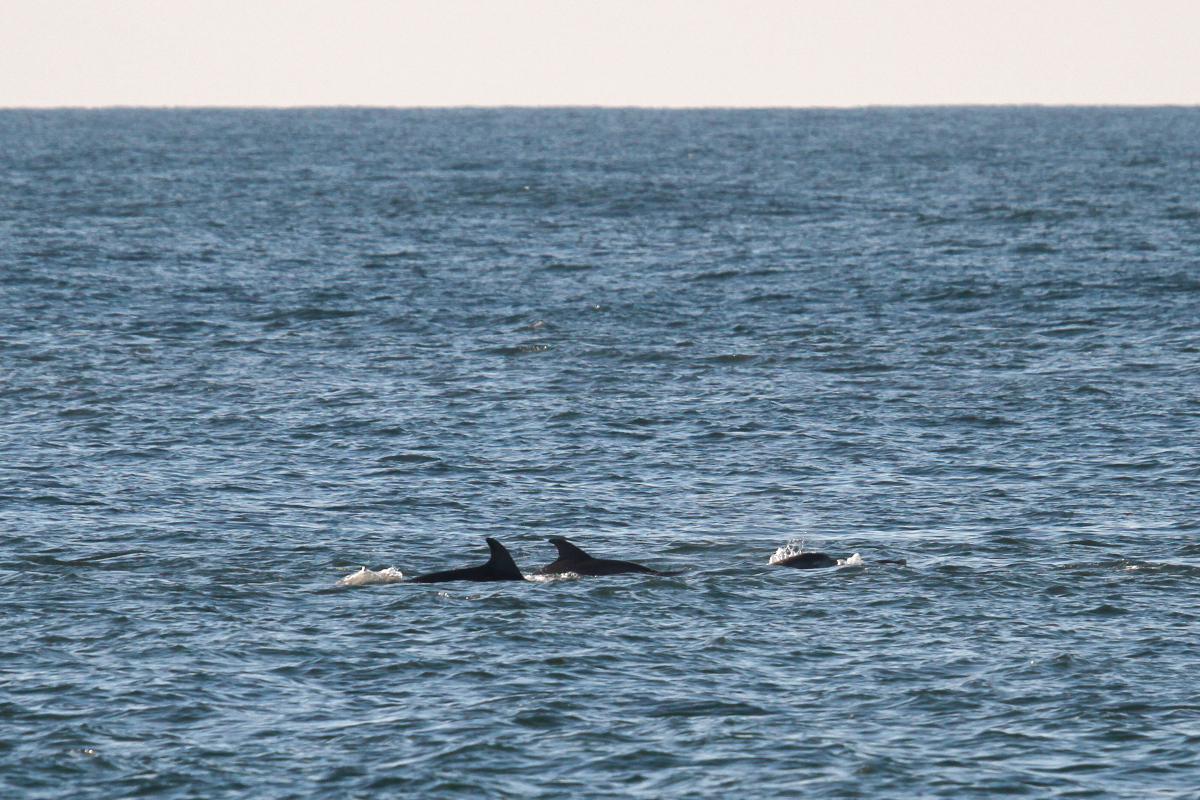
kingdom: Animalia
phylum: Chordata
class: Mammalia
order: Cetacea
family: Delphinidae
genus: Tursiops
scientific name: Tursiops truncatus
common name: Bottlenose dolphin
